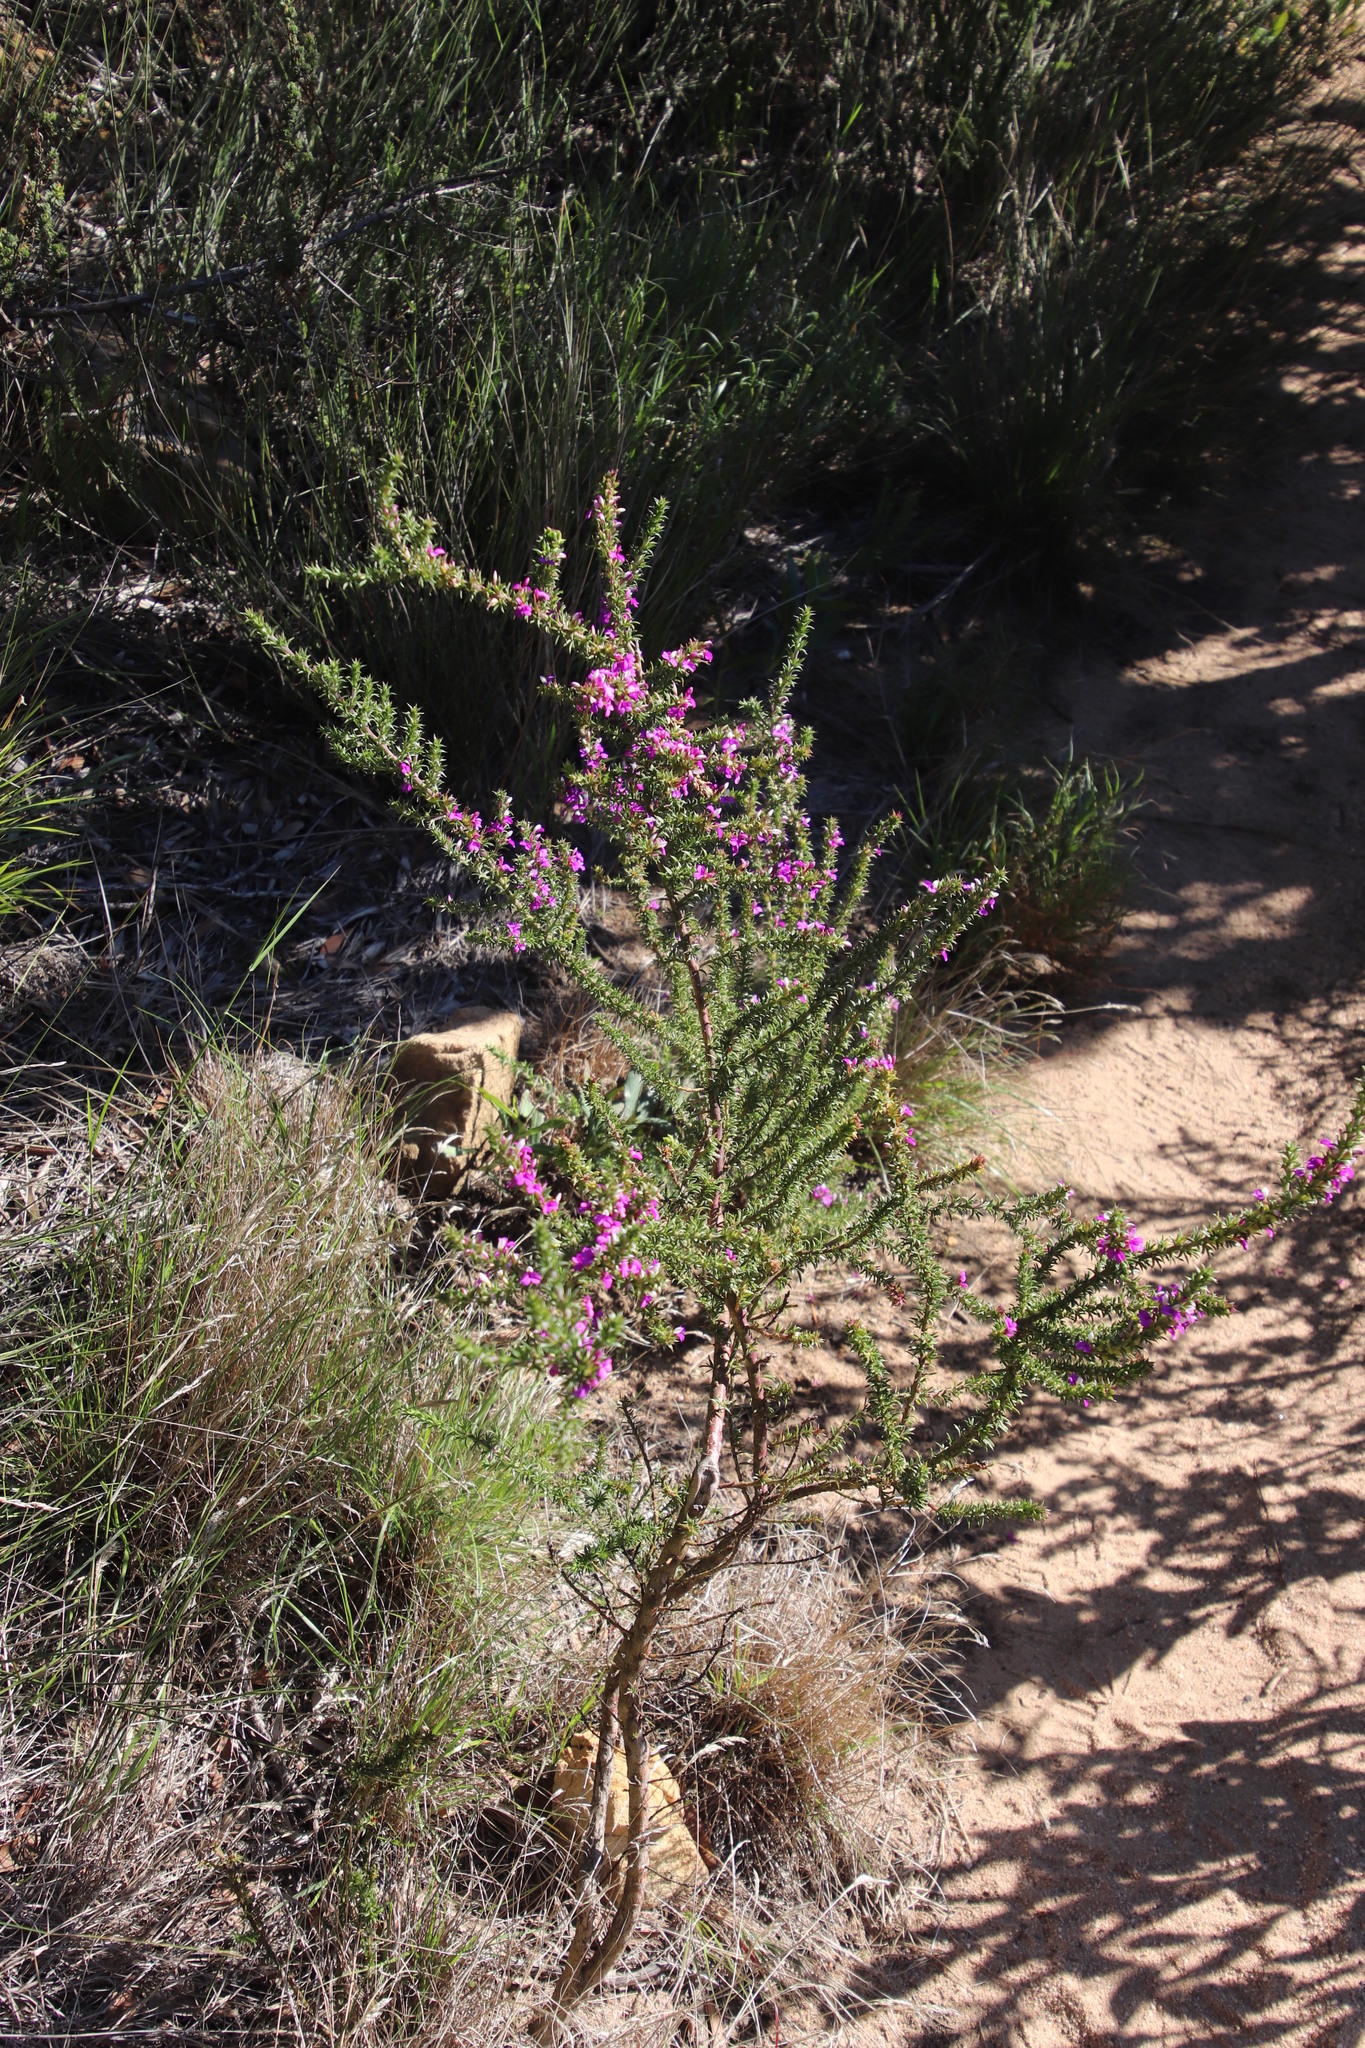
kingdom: Plantae
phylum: Tracheophyta
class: Magnoliopsida
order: Fabales
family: Polygalaceae
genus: Muraltia
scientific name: Muraltia heisteria
